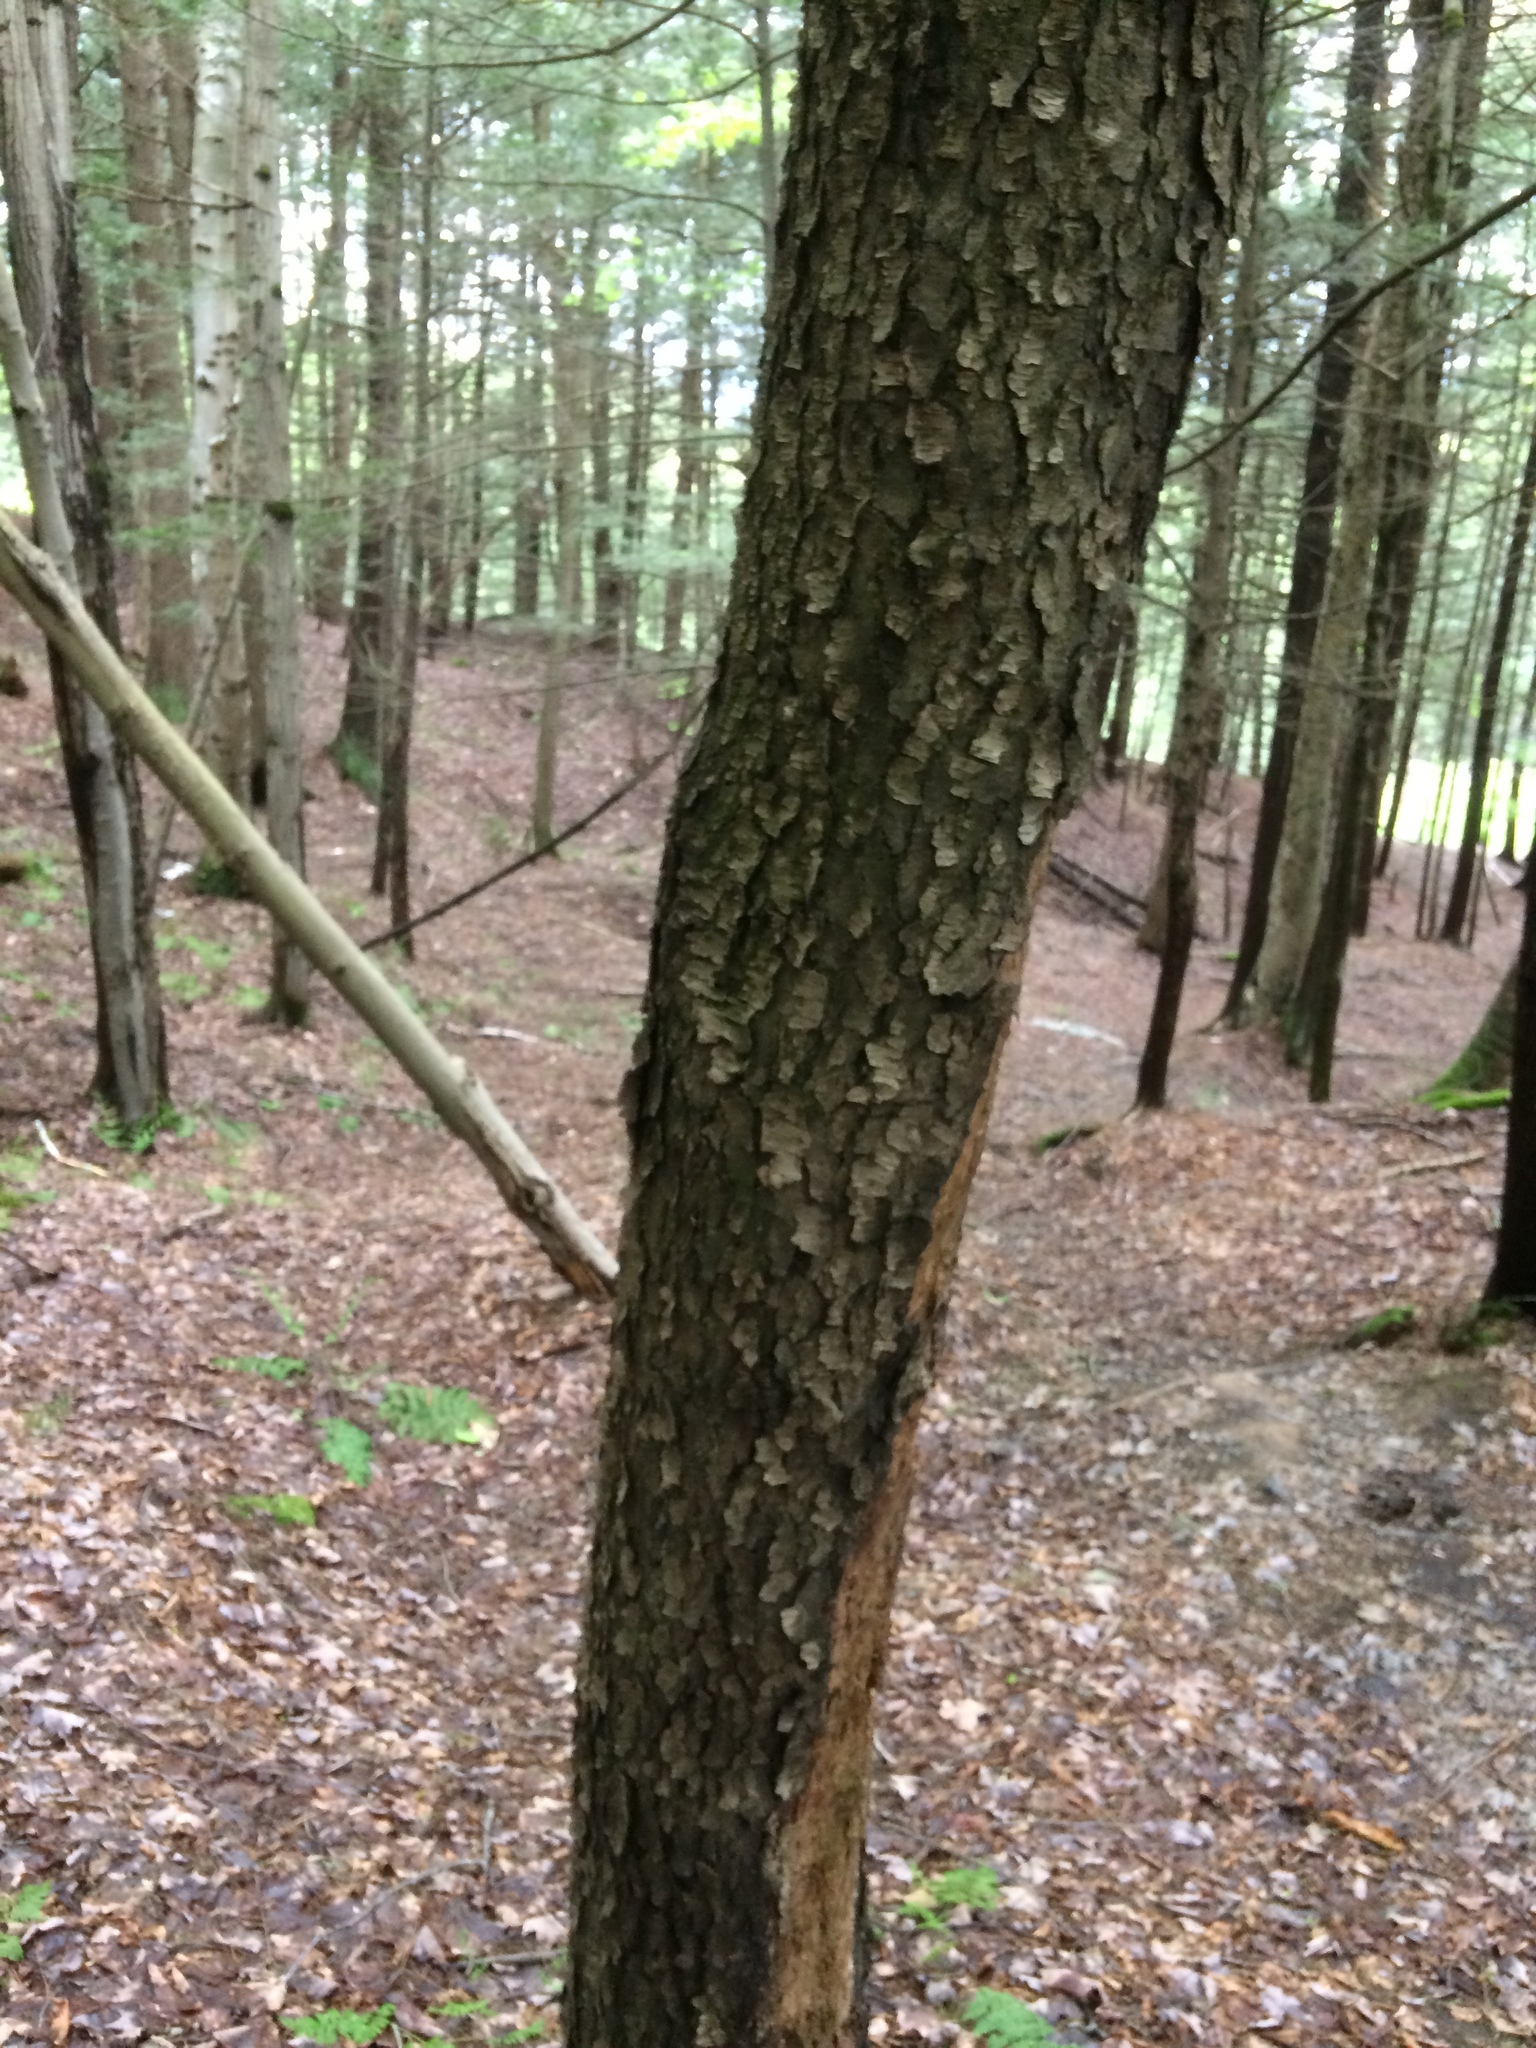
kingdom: Plantae
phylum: Tracheophyta
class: Magnoliopsida
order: Rosales
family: Rosaceae
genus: Prunus
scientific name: Prunus serotina
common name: Black cherry
